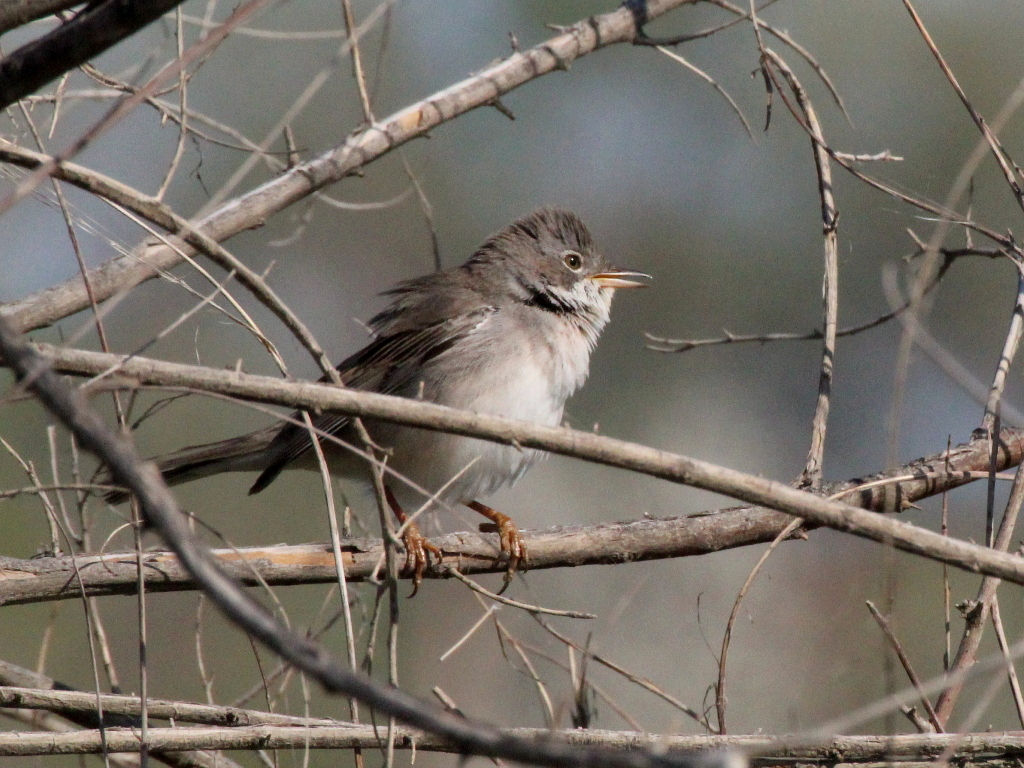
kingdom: Animalia
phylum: Chordata
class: Aves
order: Passeriformes
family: Sylviidae
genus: Sylvia
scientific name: Sylvia communis
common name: Common whitethroat
